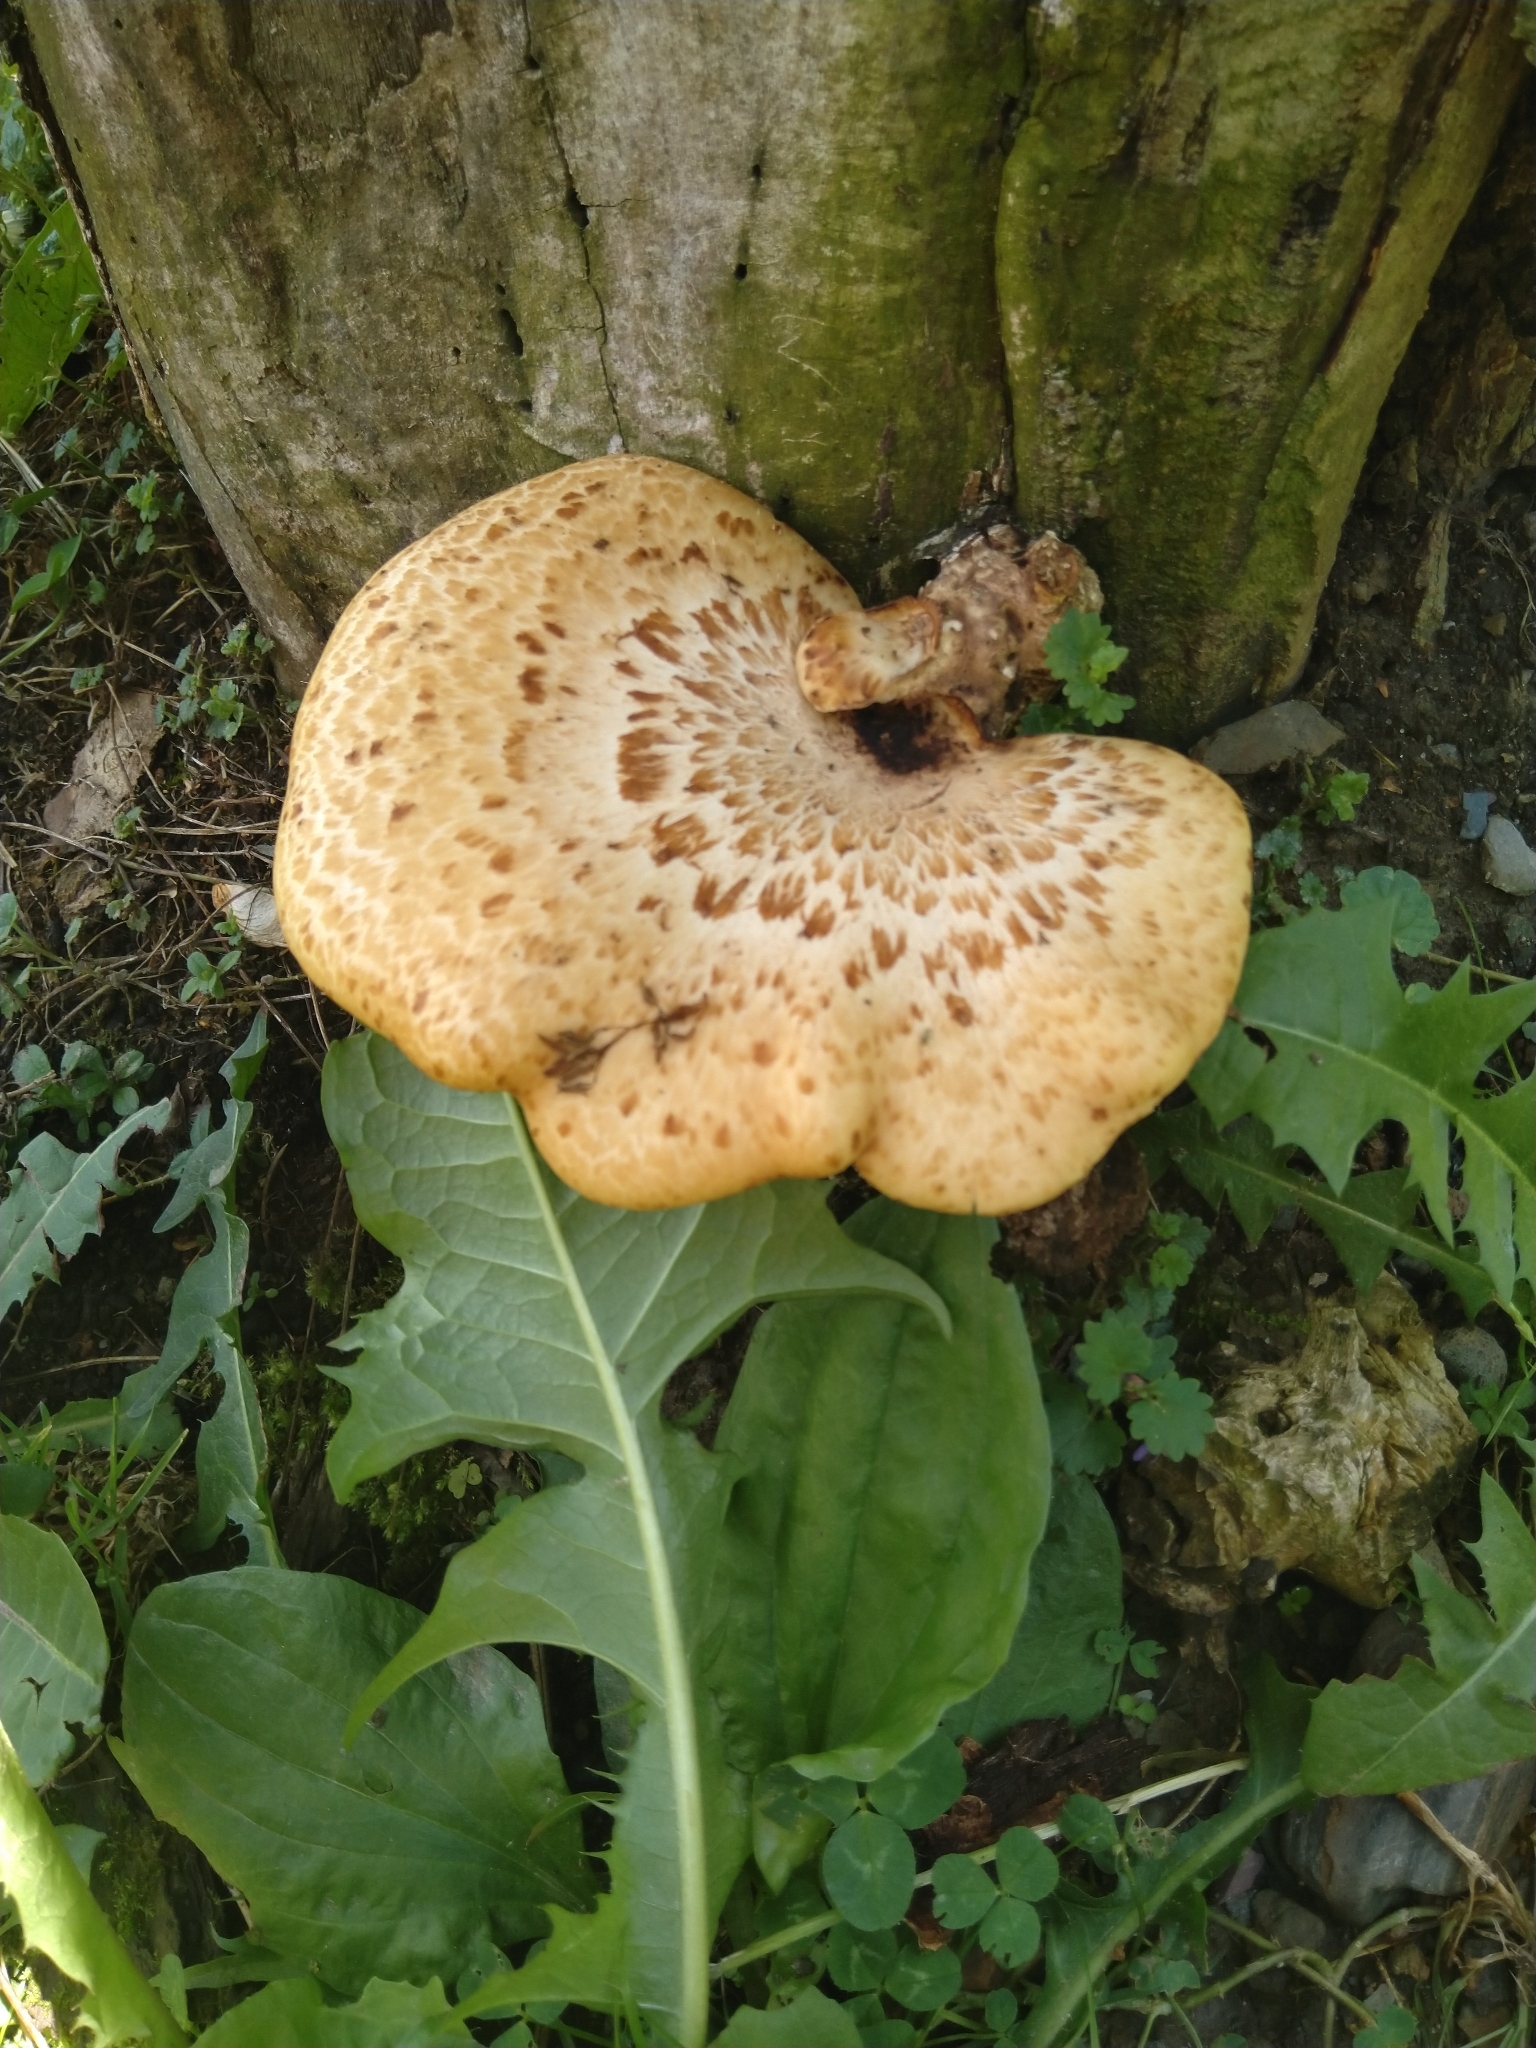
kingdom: Fungi
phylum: Basidiomycota
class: Agaricomycetes
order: Polyporales
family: Polyporaceae
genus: Cerioporus
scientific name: Cerioporus squamosus
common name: Dryad's saddle
